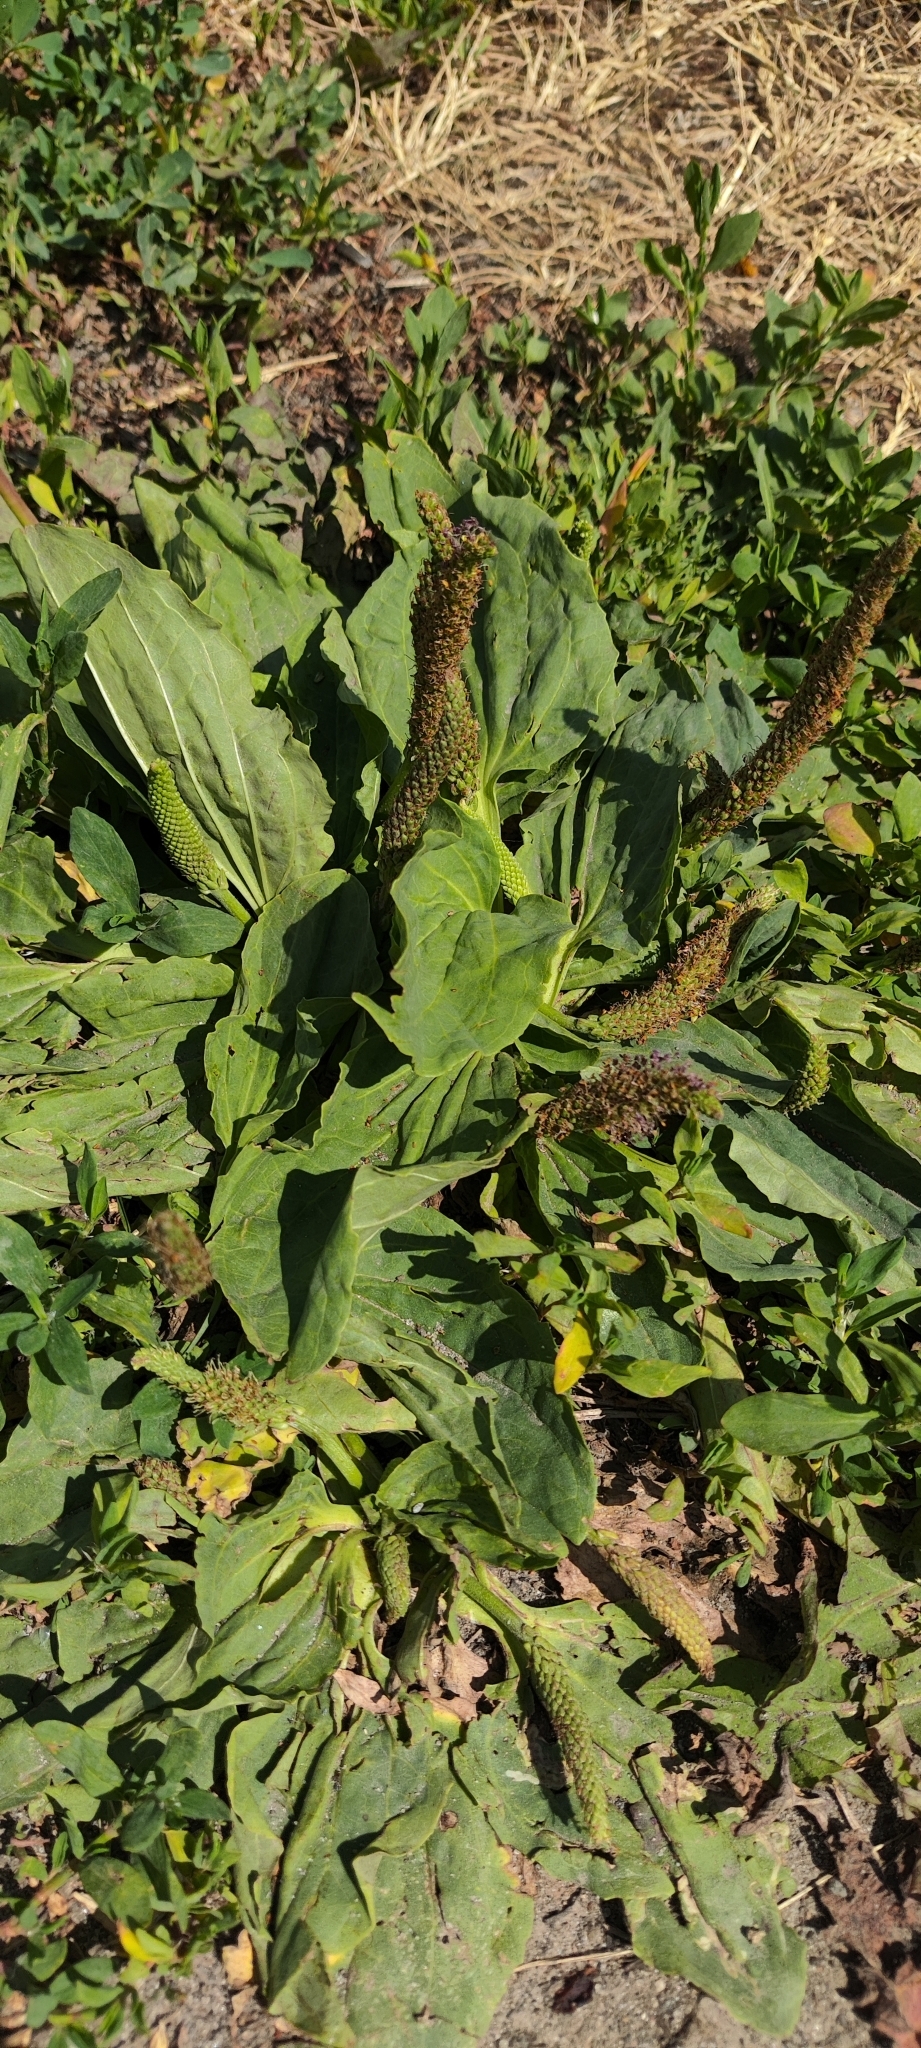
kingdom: Plantae
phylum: Tracheophyta
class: Magnoliopsida
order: Lamiales
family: Plantaginaceae
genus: Plantago
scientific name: Plantago major
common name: Common plantain
